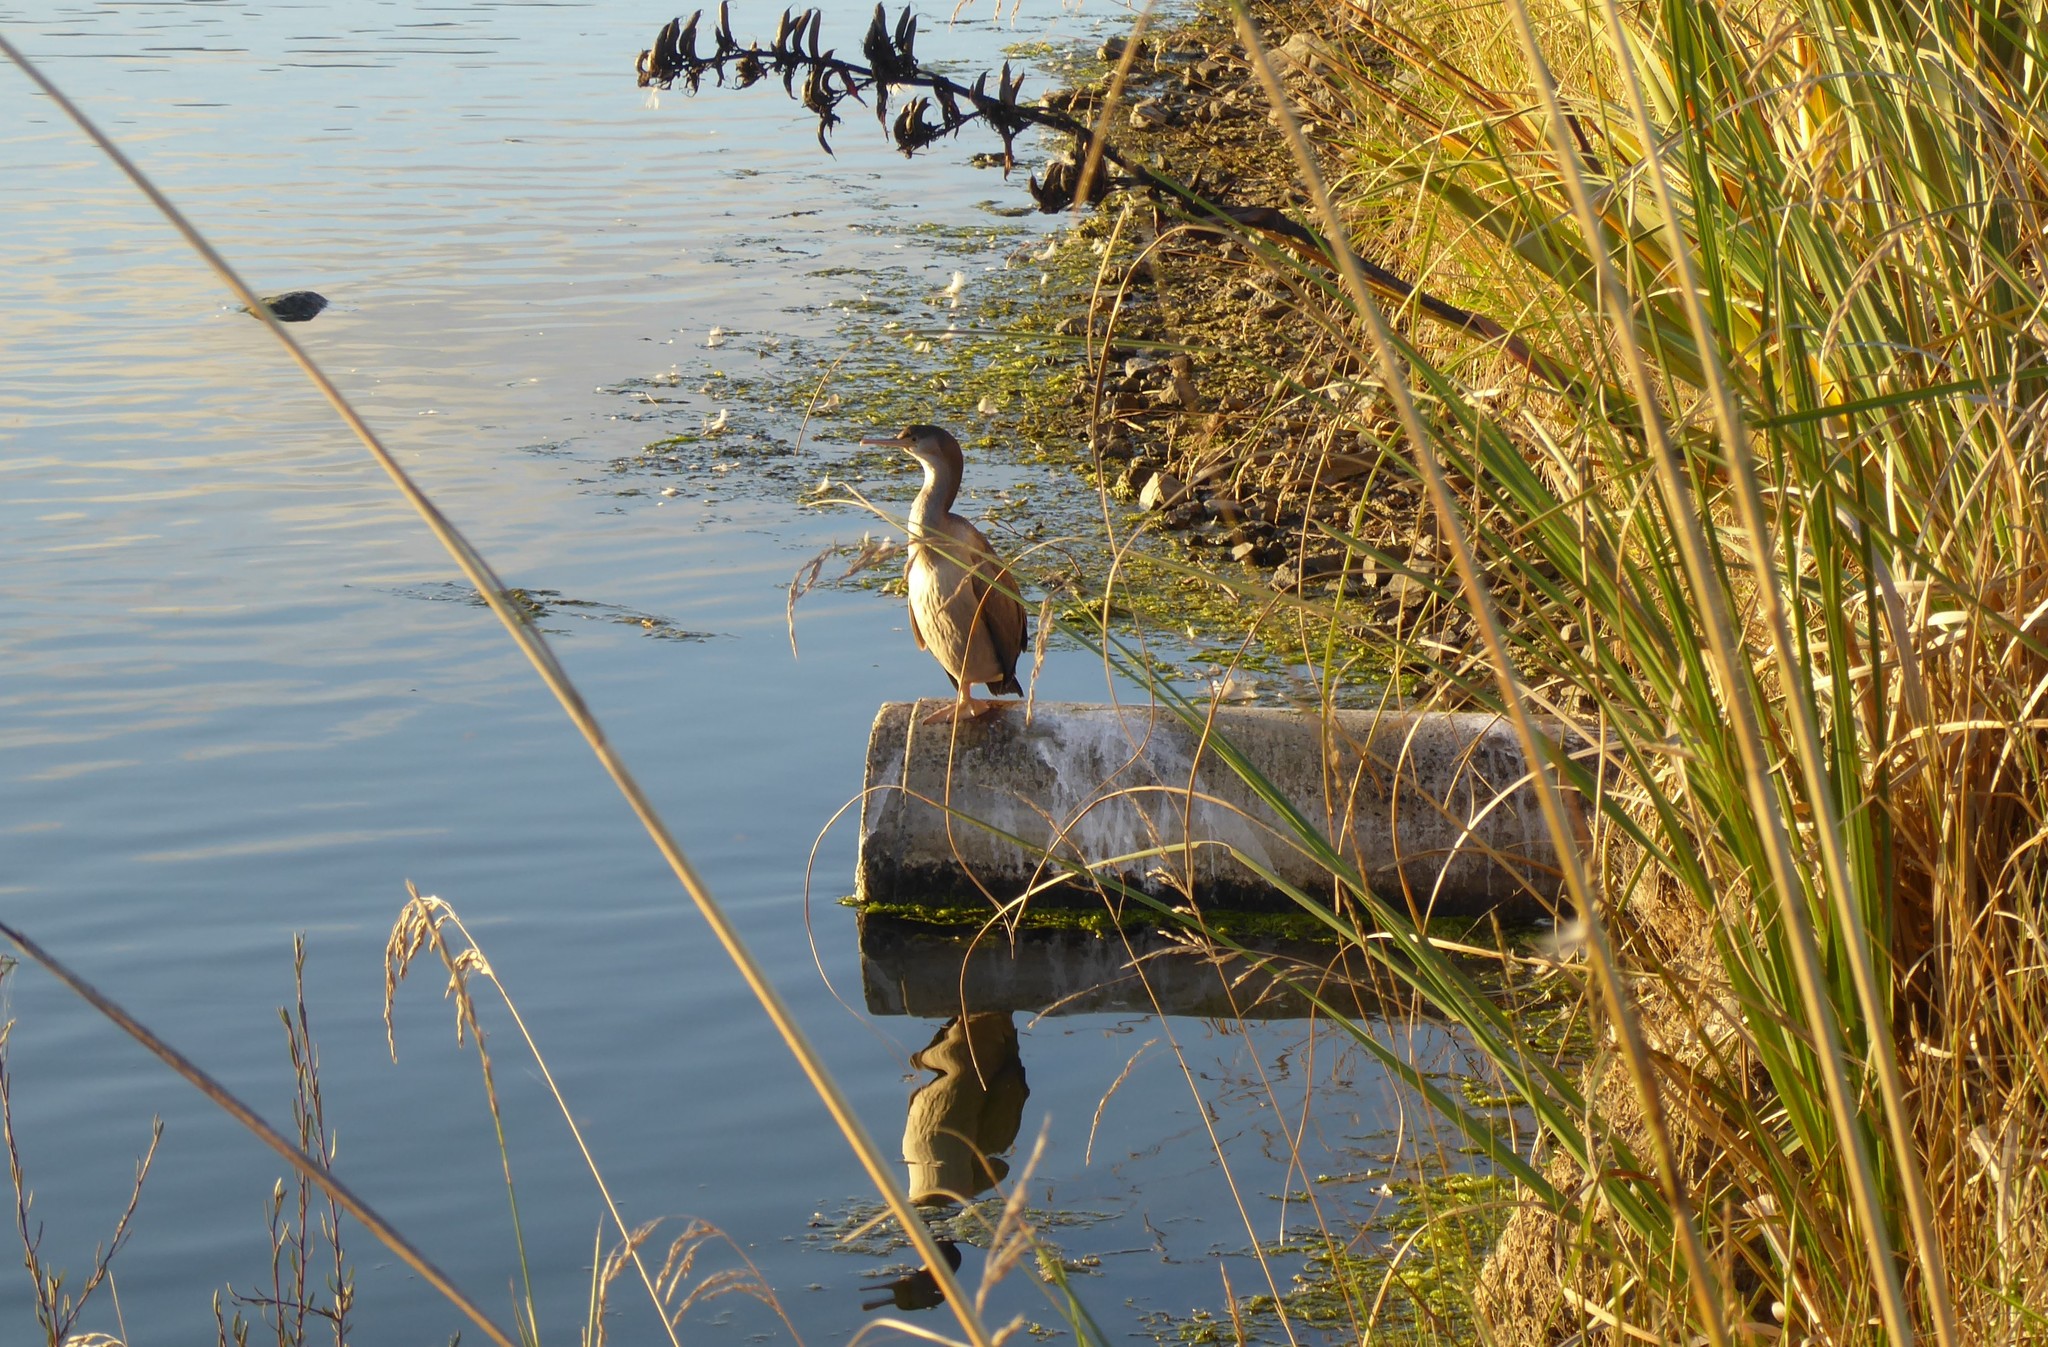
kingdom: Animalia
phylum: Chordata
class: Aves
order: Suliformes
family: Phalacrocoracidae
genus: Phalacrocorax
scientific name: Phalacrocorax punctatus
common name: Spotted shag
